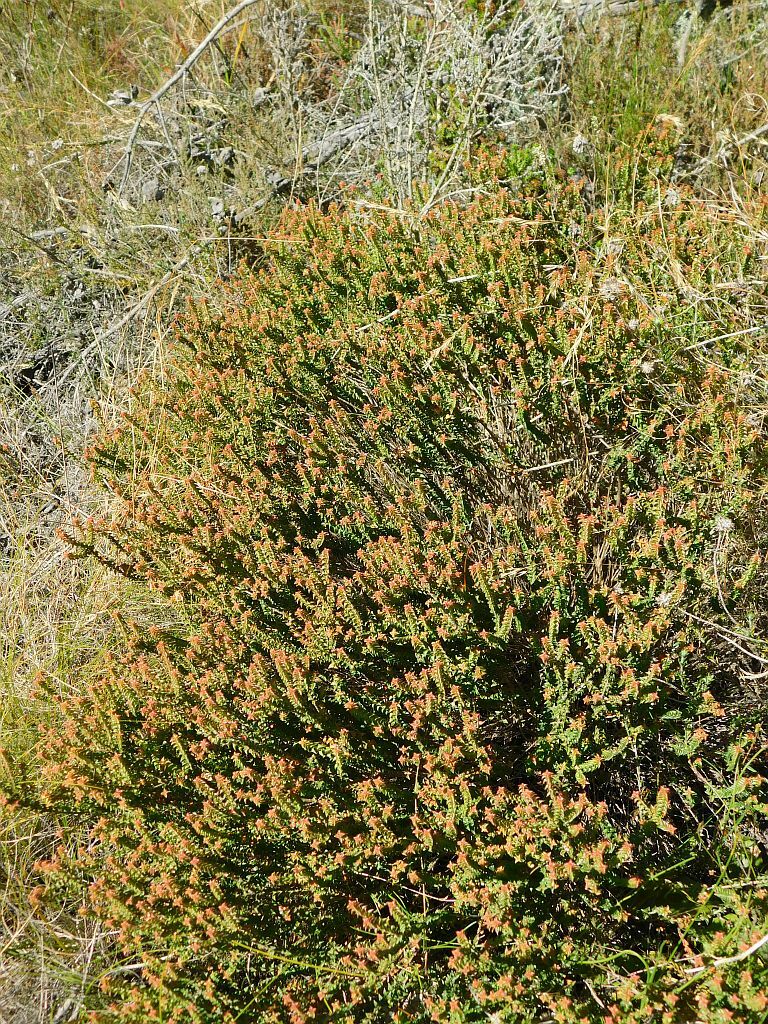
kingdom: Plantae
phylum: Tracheophyta
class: Magnoliopsida
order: Myrtales
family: Penaeaceae
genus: Penaea
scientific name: Penaea cneorum
